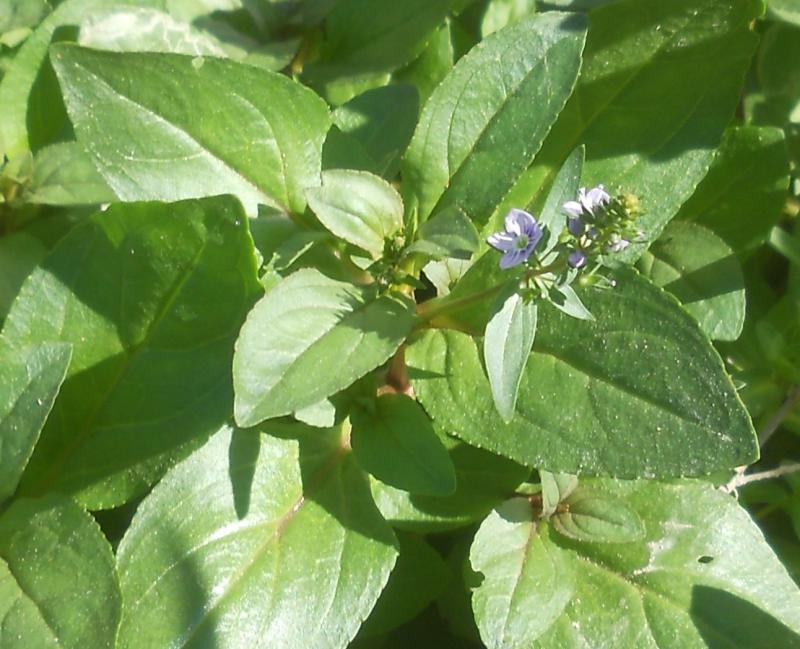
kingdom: Plantae
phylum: Tracheophyta
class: Magnoliopsida
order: Lamiales
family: Plantaginaceae
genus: Veronica
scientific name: Veronica anagallis-aquatica
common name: Water speedwell
